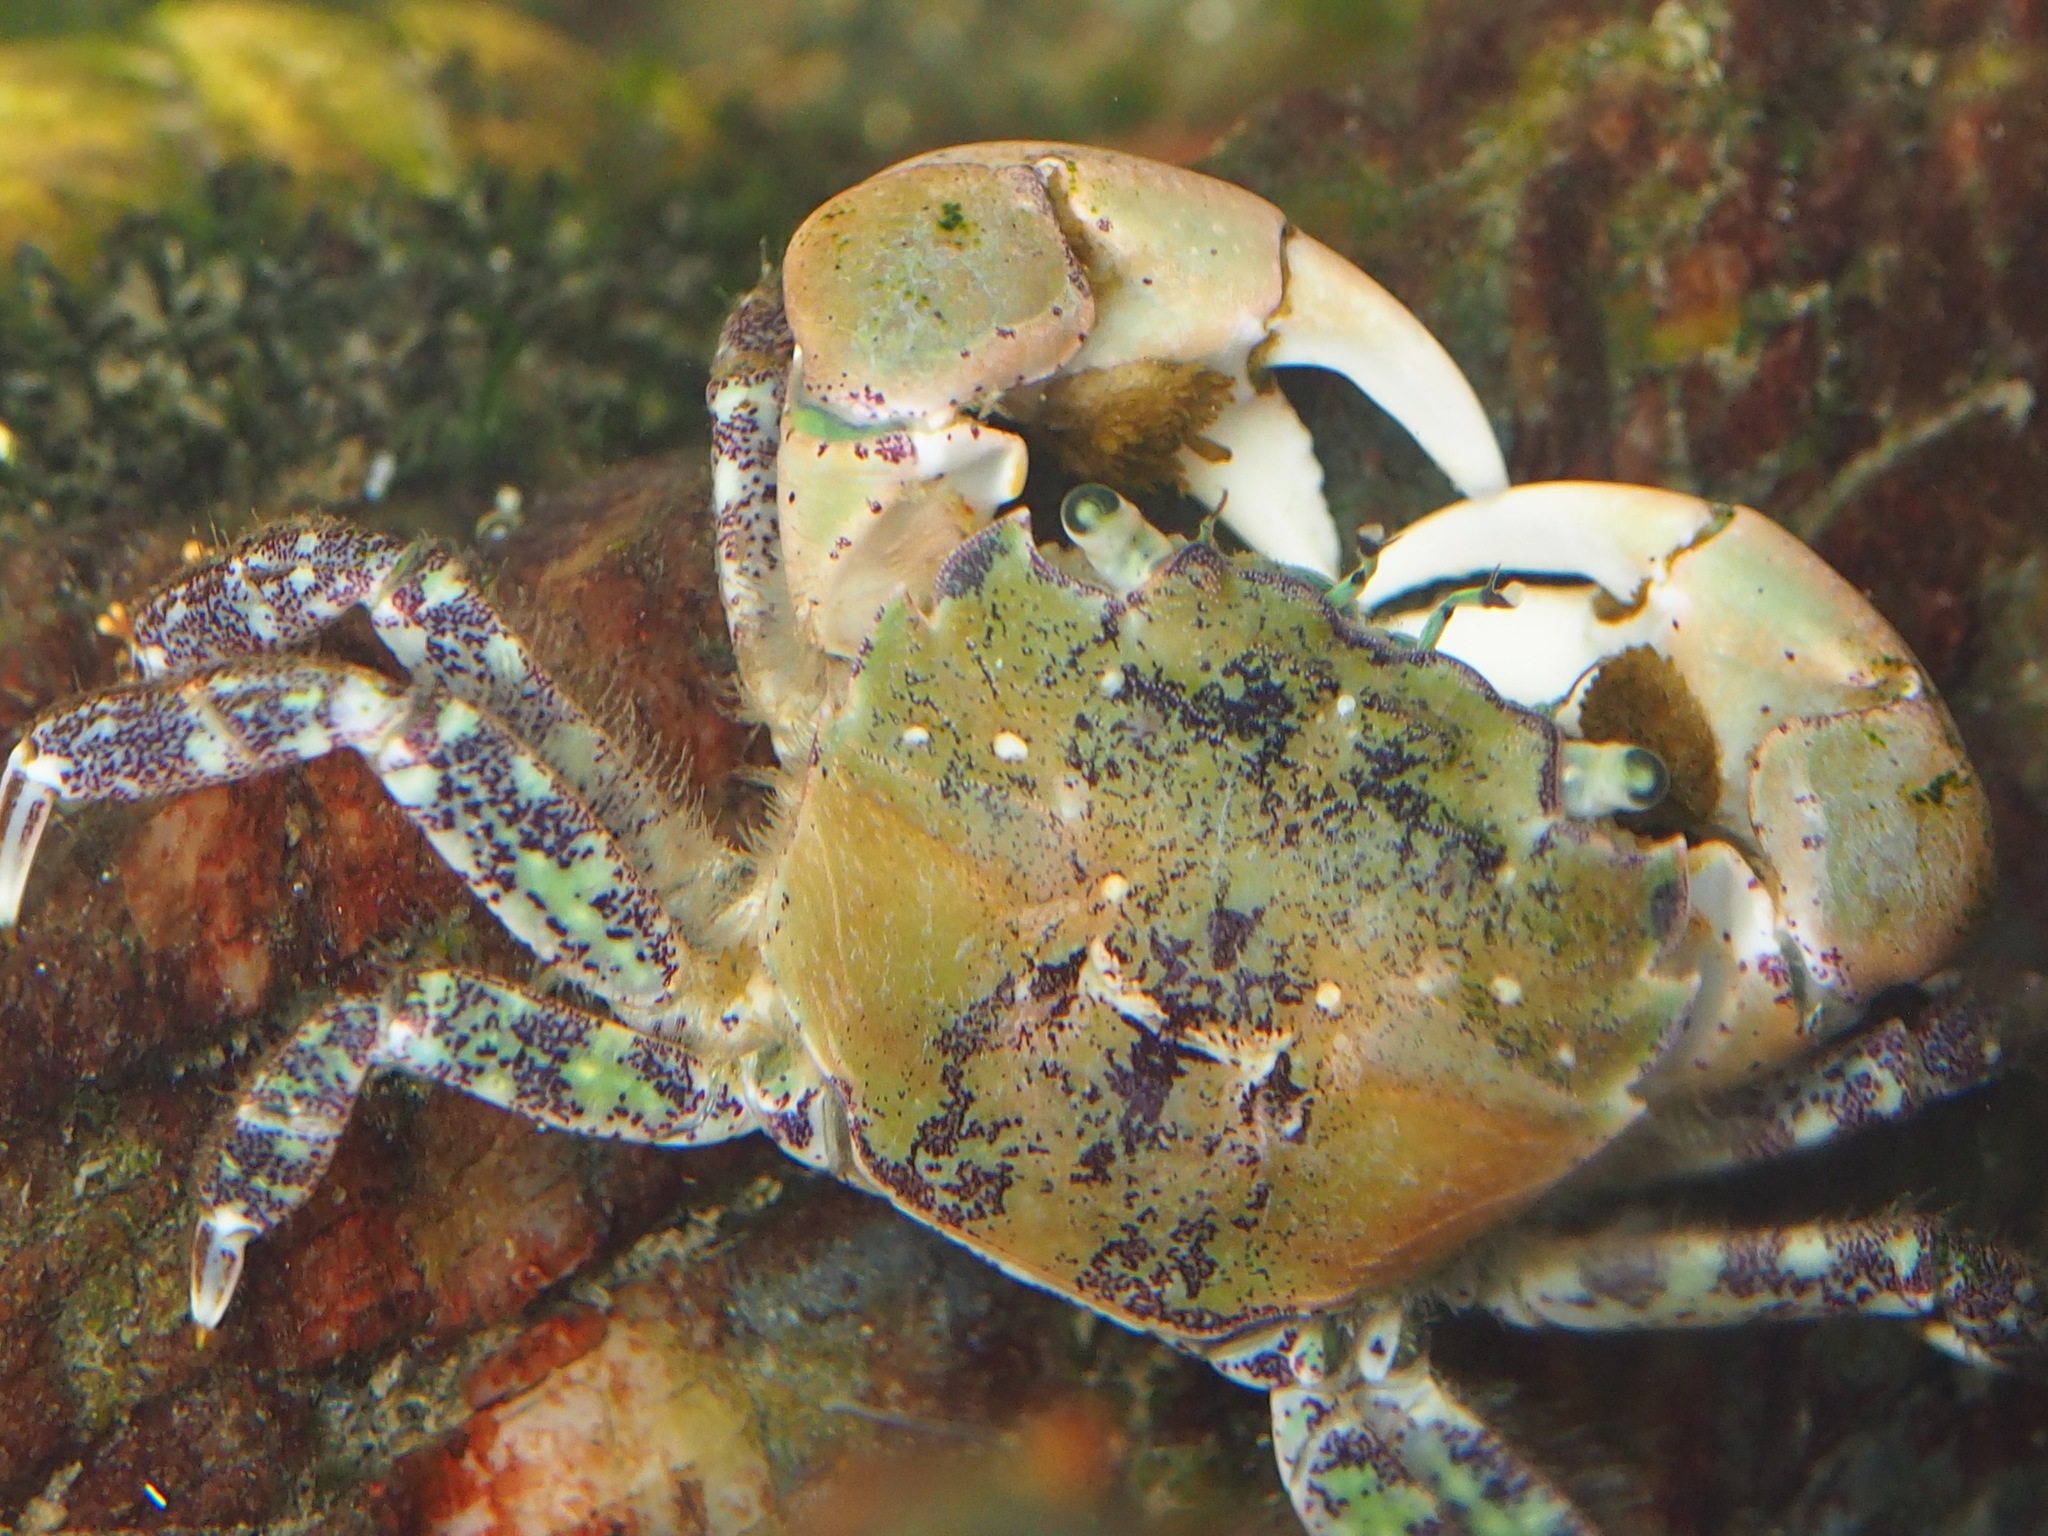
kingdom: Animalia
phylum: Arthropoda
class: Malacostraca
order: Decapoda
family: Varunidae
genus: Hemigrapsus
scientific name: Hemigrapsus oregonensis
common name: Yellow shore crab
